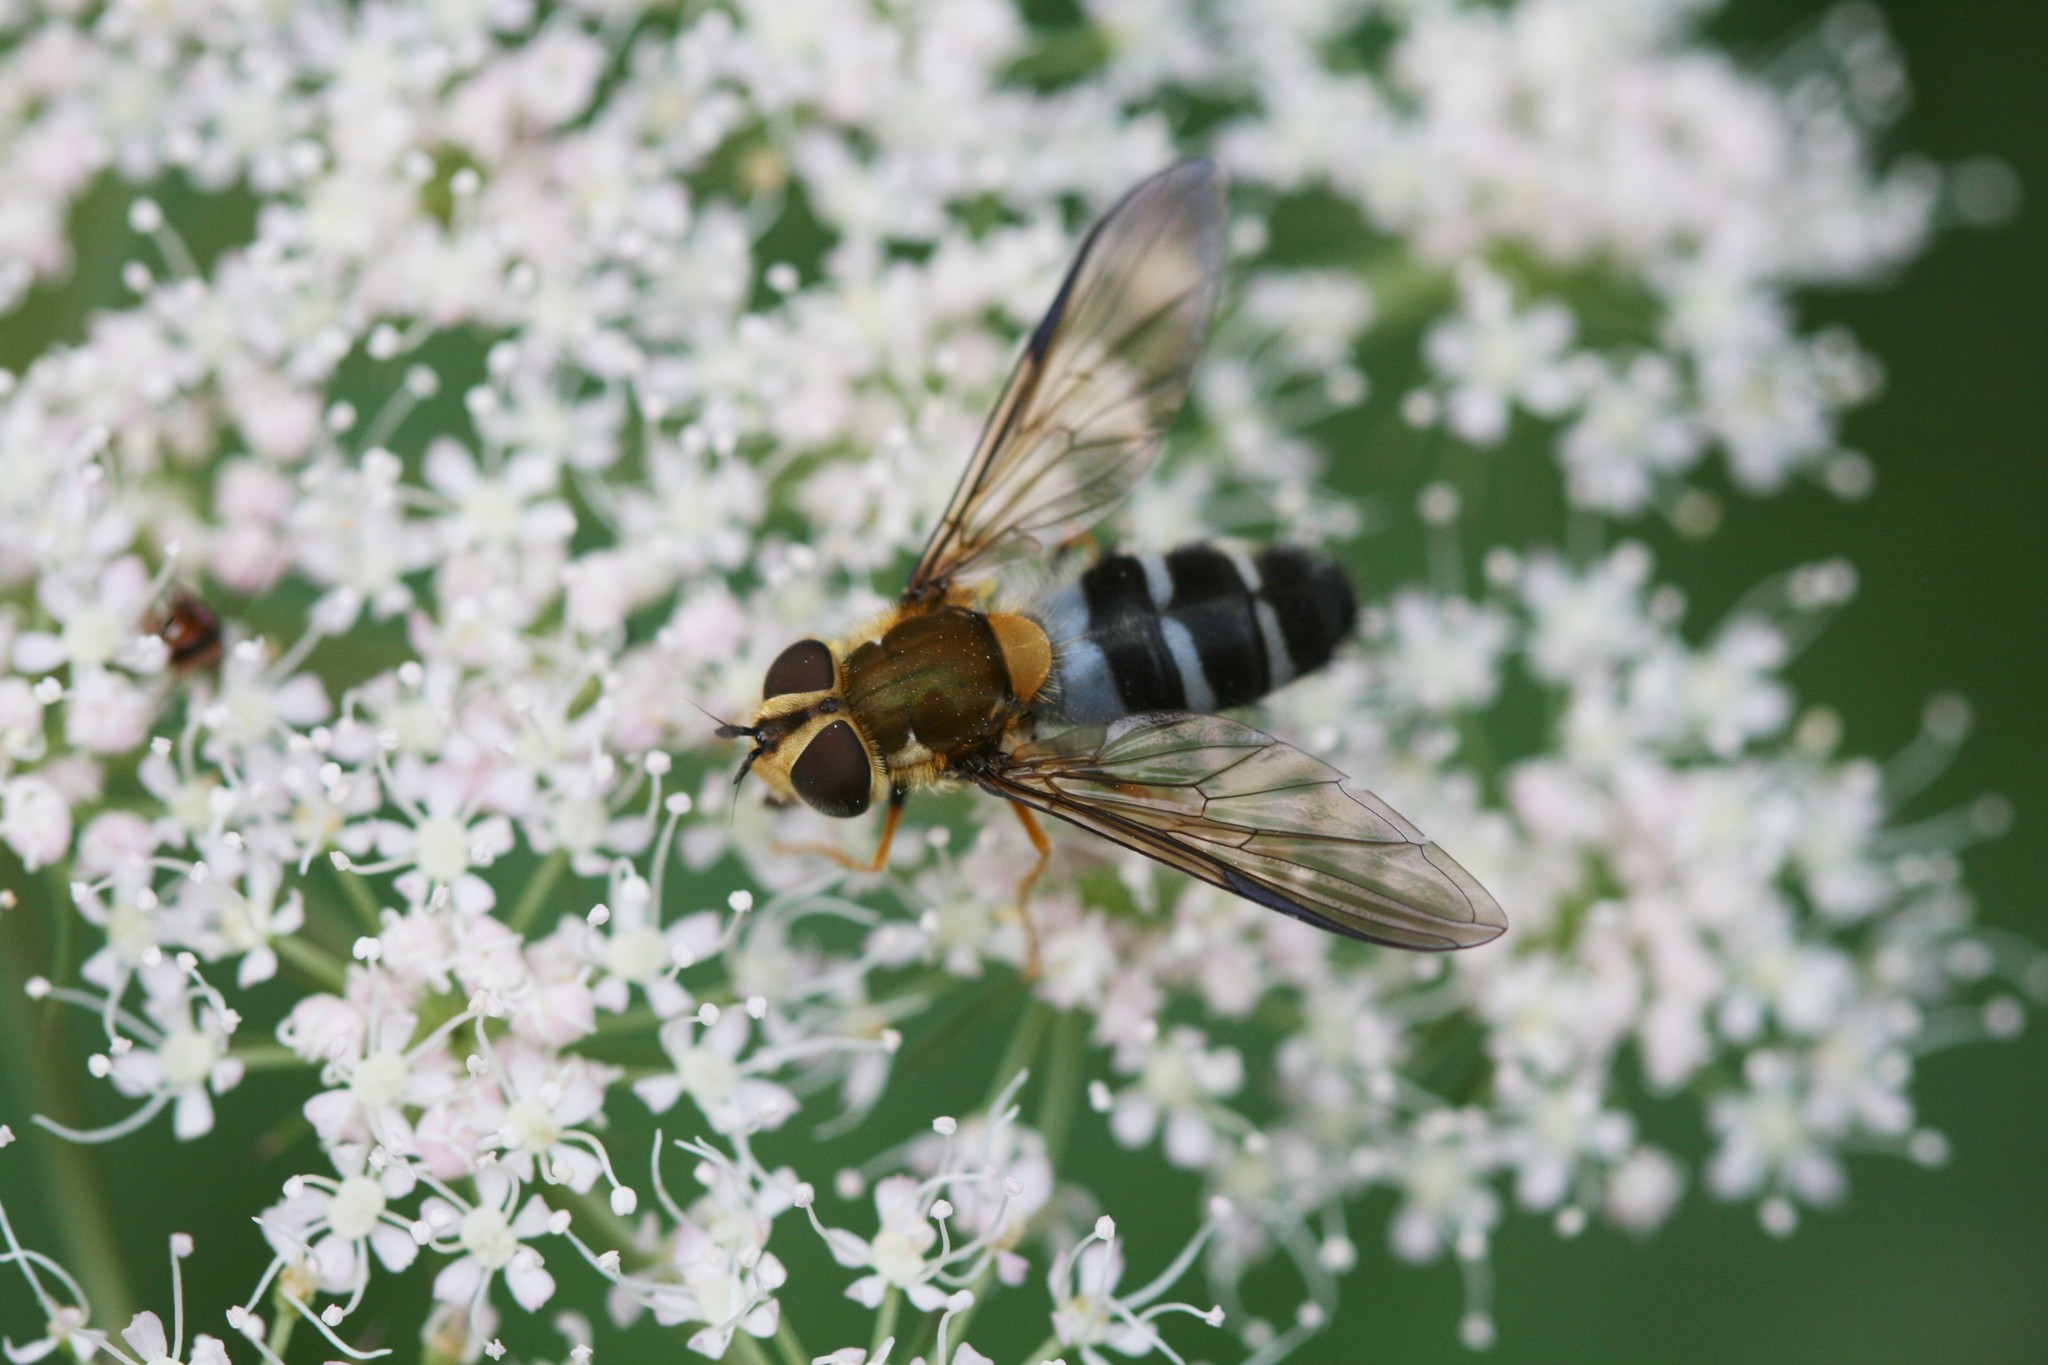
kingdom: Animalia
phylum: Arthropoda
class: Insecta
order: Diptera
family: Syrphidae
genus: Leucozona
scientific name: Leucozona glaucia
